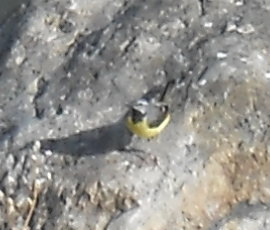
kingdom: Animalia
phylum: Chordata
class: Aves
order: Passeriformes
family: Motacillidae
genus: Motacilla
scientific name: Motacilla cinerea
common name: Grey wagtail
